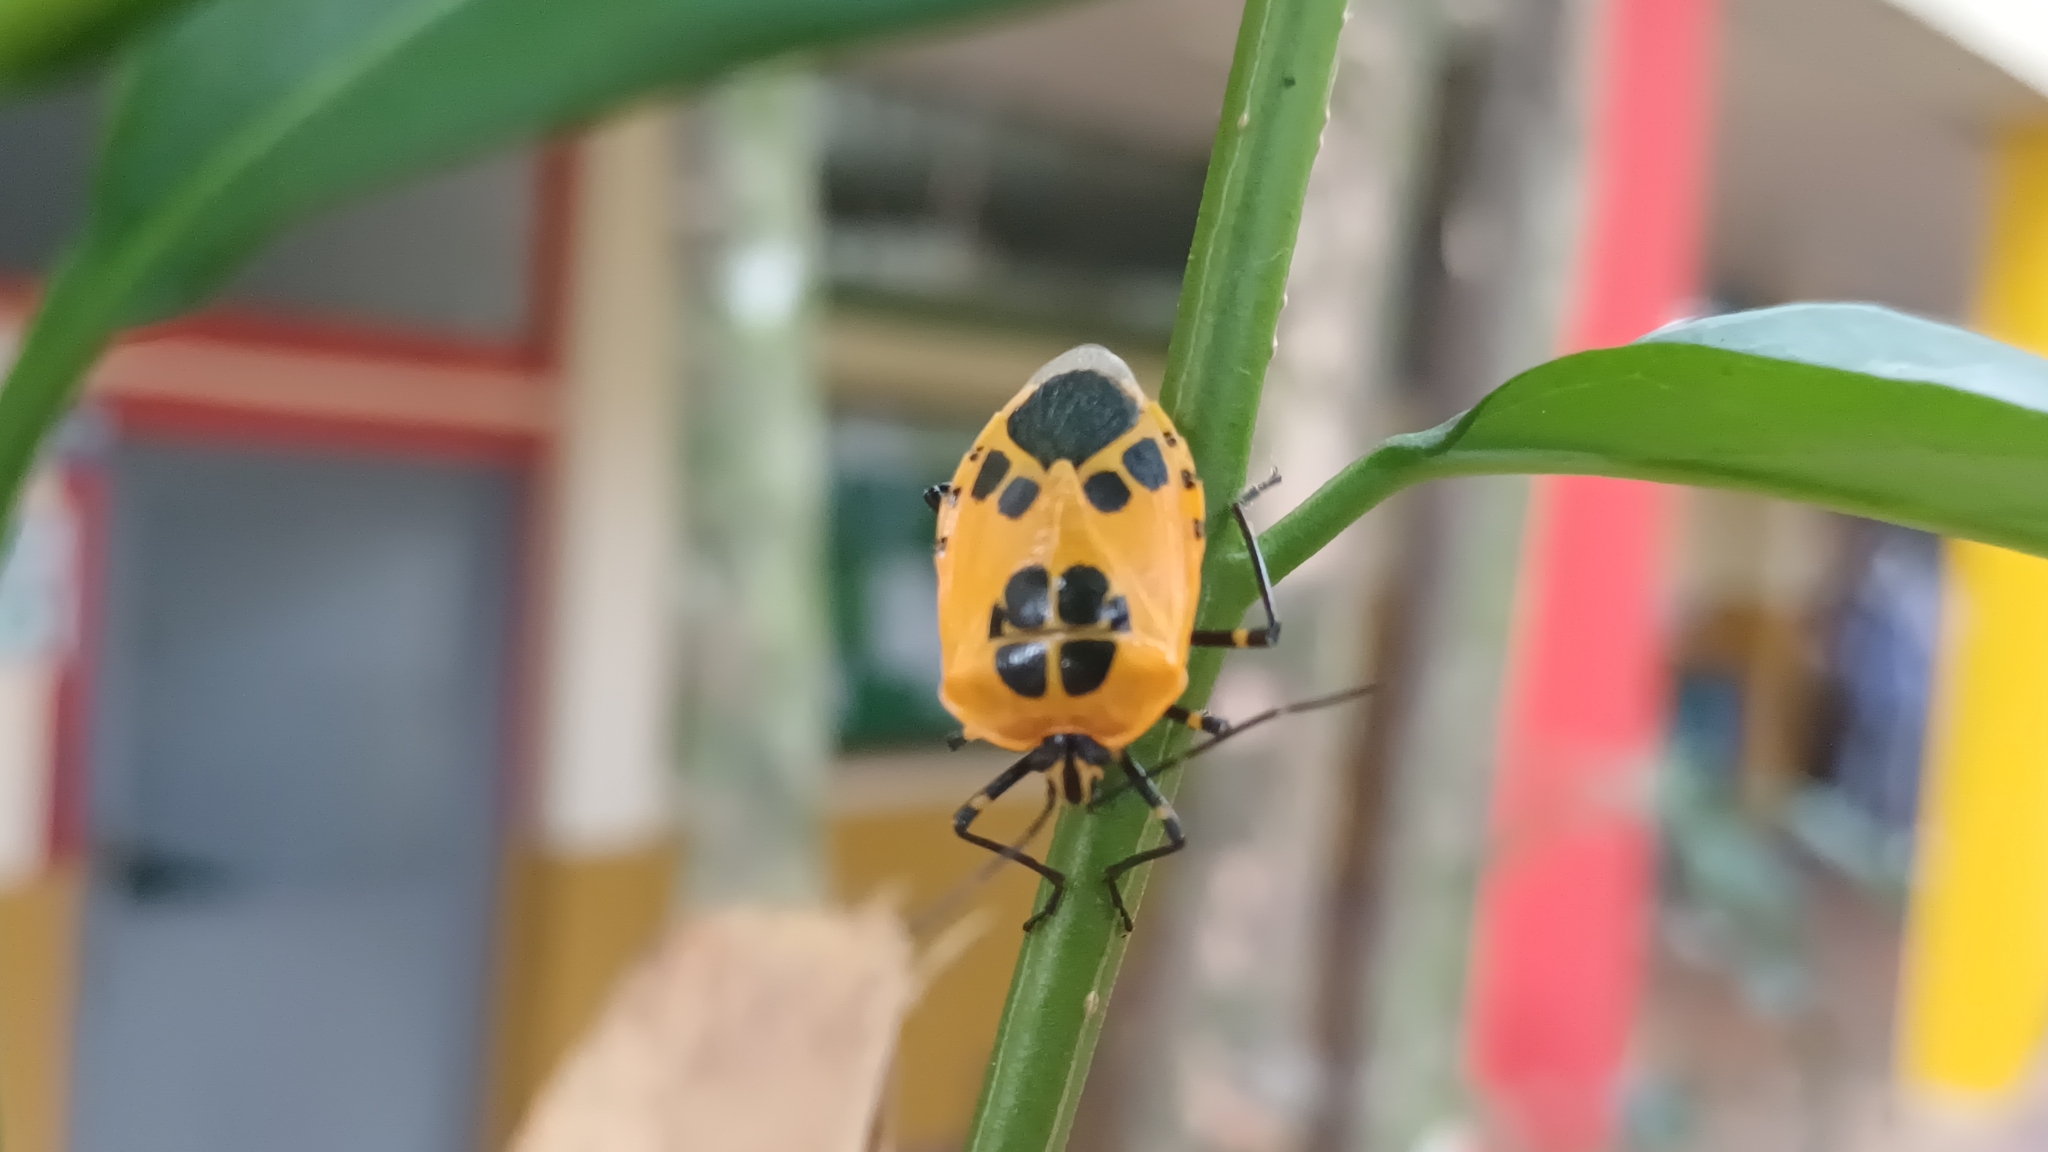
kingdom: Animalia
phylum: Arthropoda
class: Insecta
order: Hemiptera
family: Pentatomidae
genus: Runibia
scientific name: Runibia decorata
